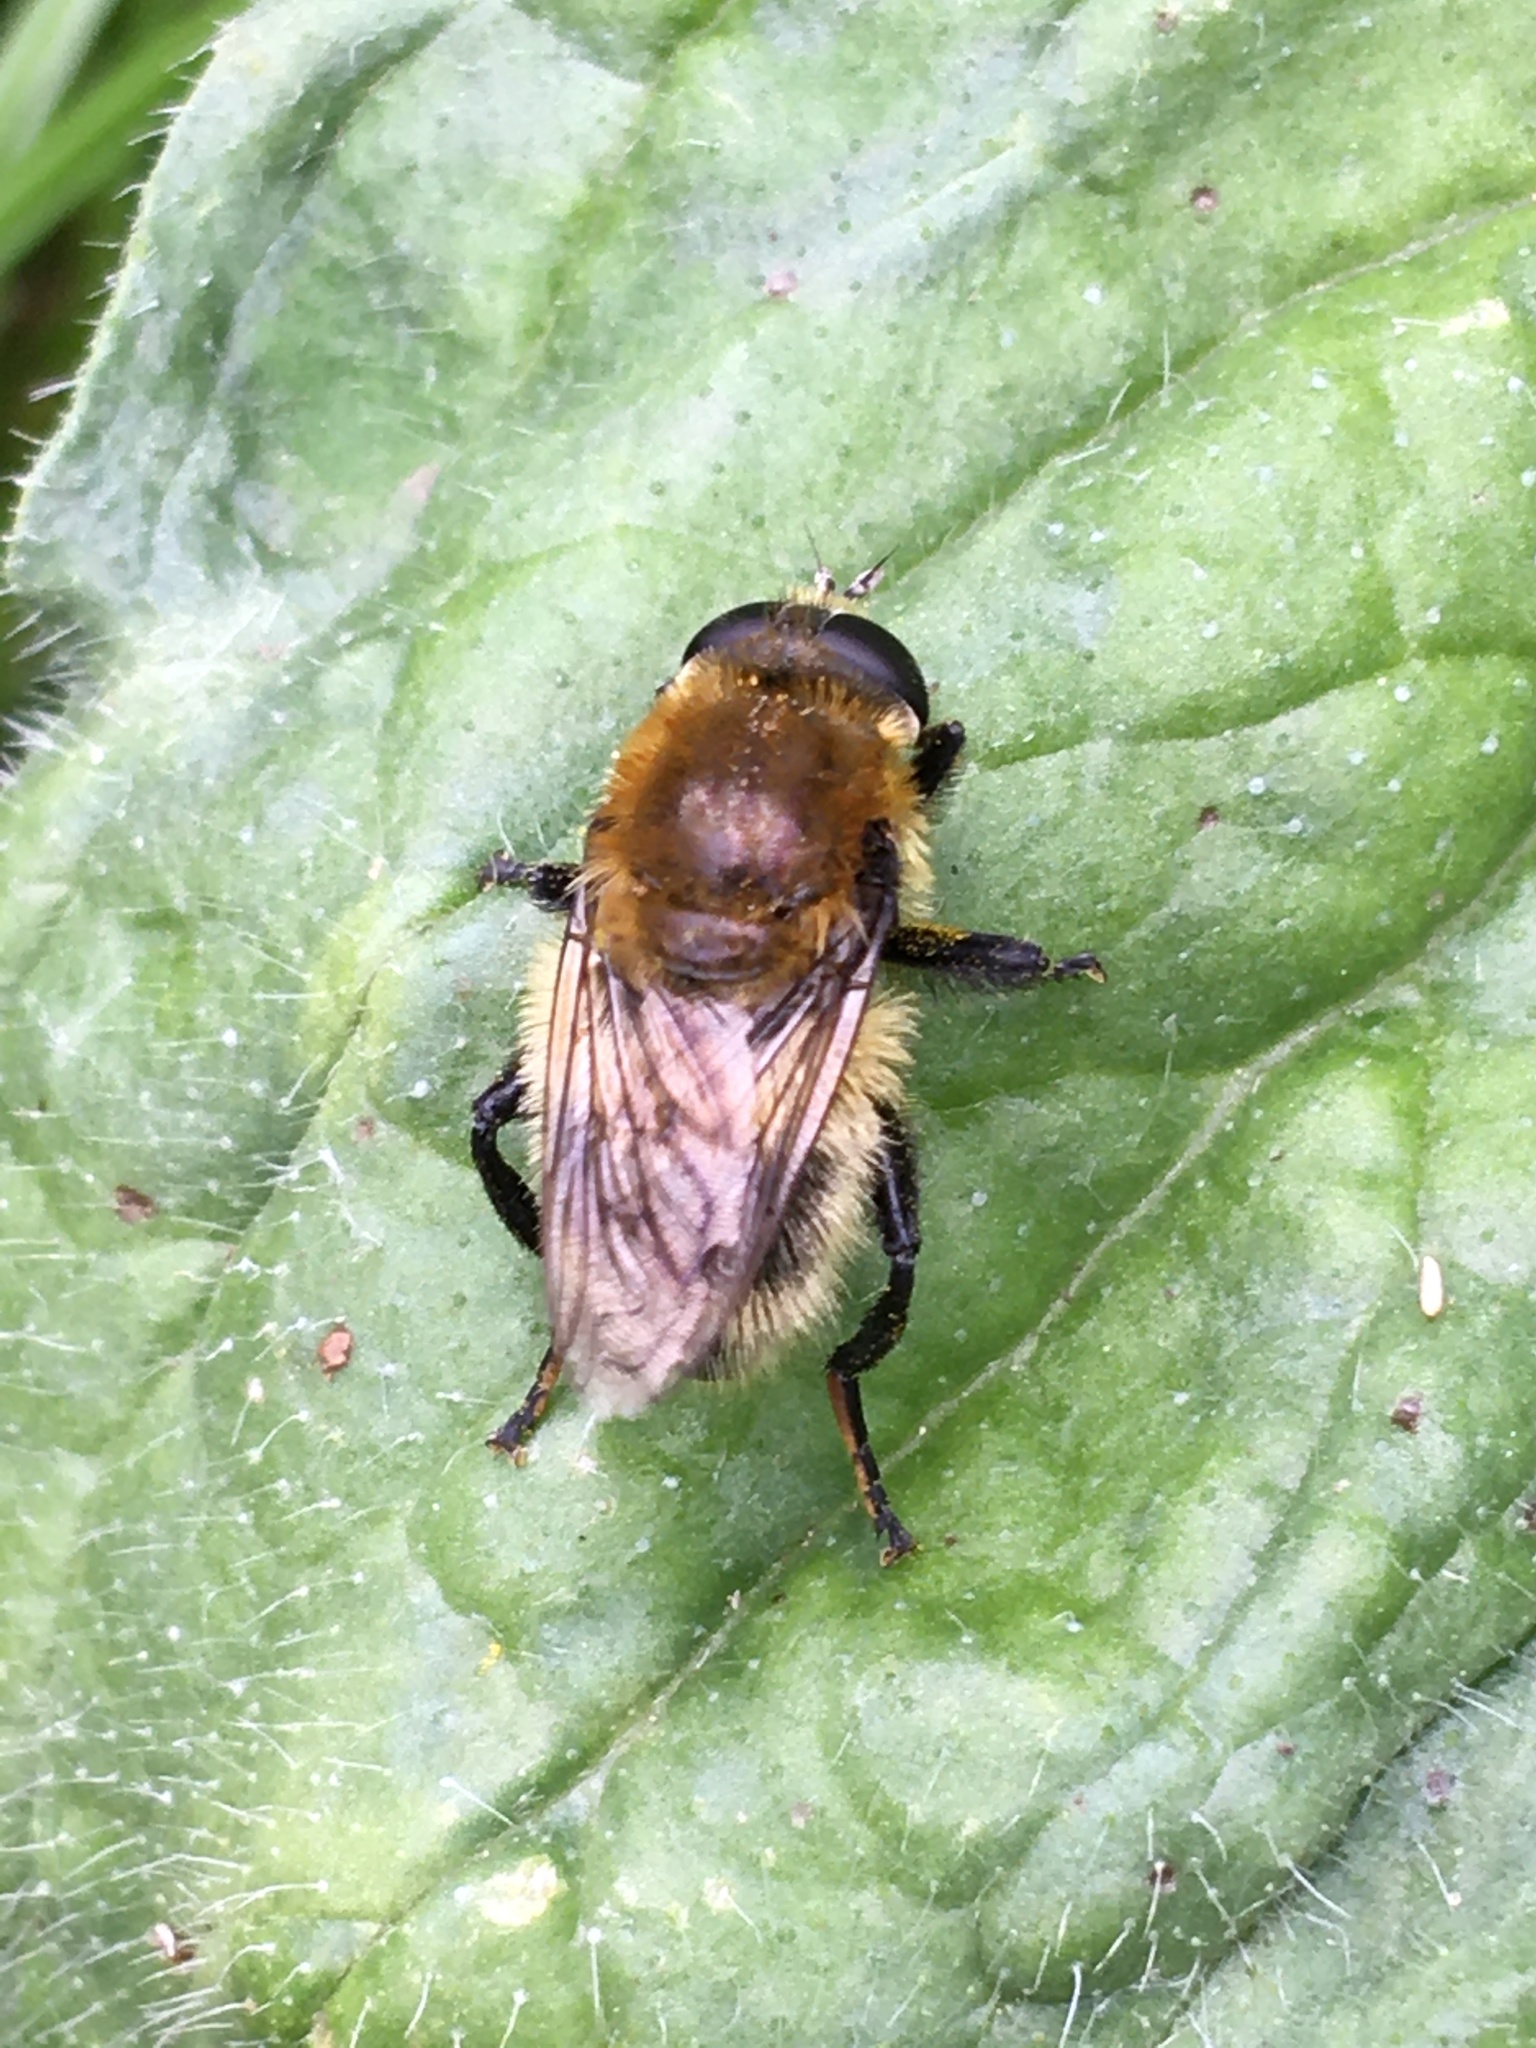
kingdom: Animalia
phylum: Arthropoda
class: Insecta
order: Diptera
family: Syrphidae
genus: Merodon
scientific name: Merodon equestris
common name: Greater bulb-fly
